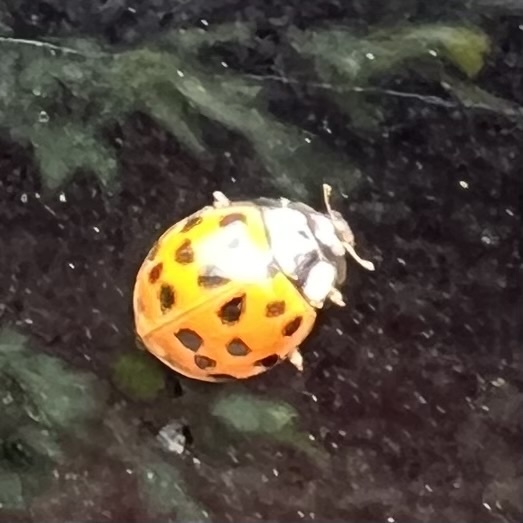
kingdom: Animalia
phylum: Arthropoda
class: Insecta
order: Coleoptera
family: Coccinellidae
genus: Harmonia
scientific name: Harmonia axyridis
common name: Harlequin ladybird
